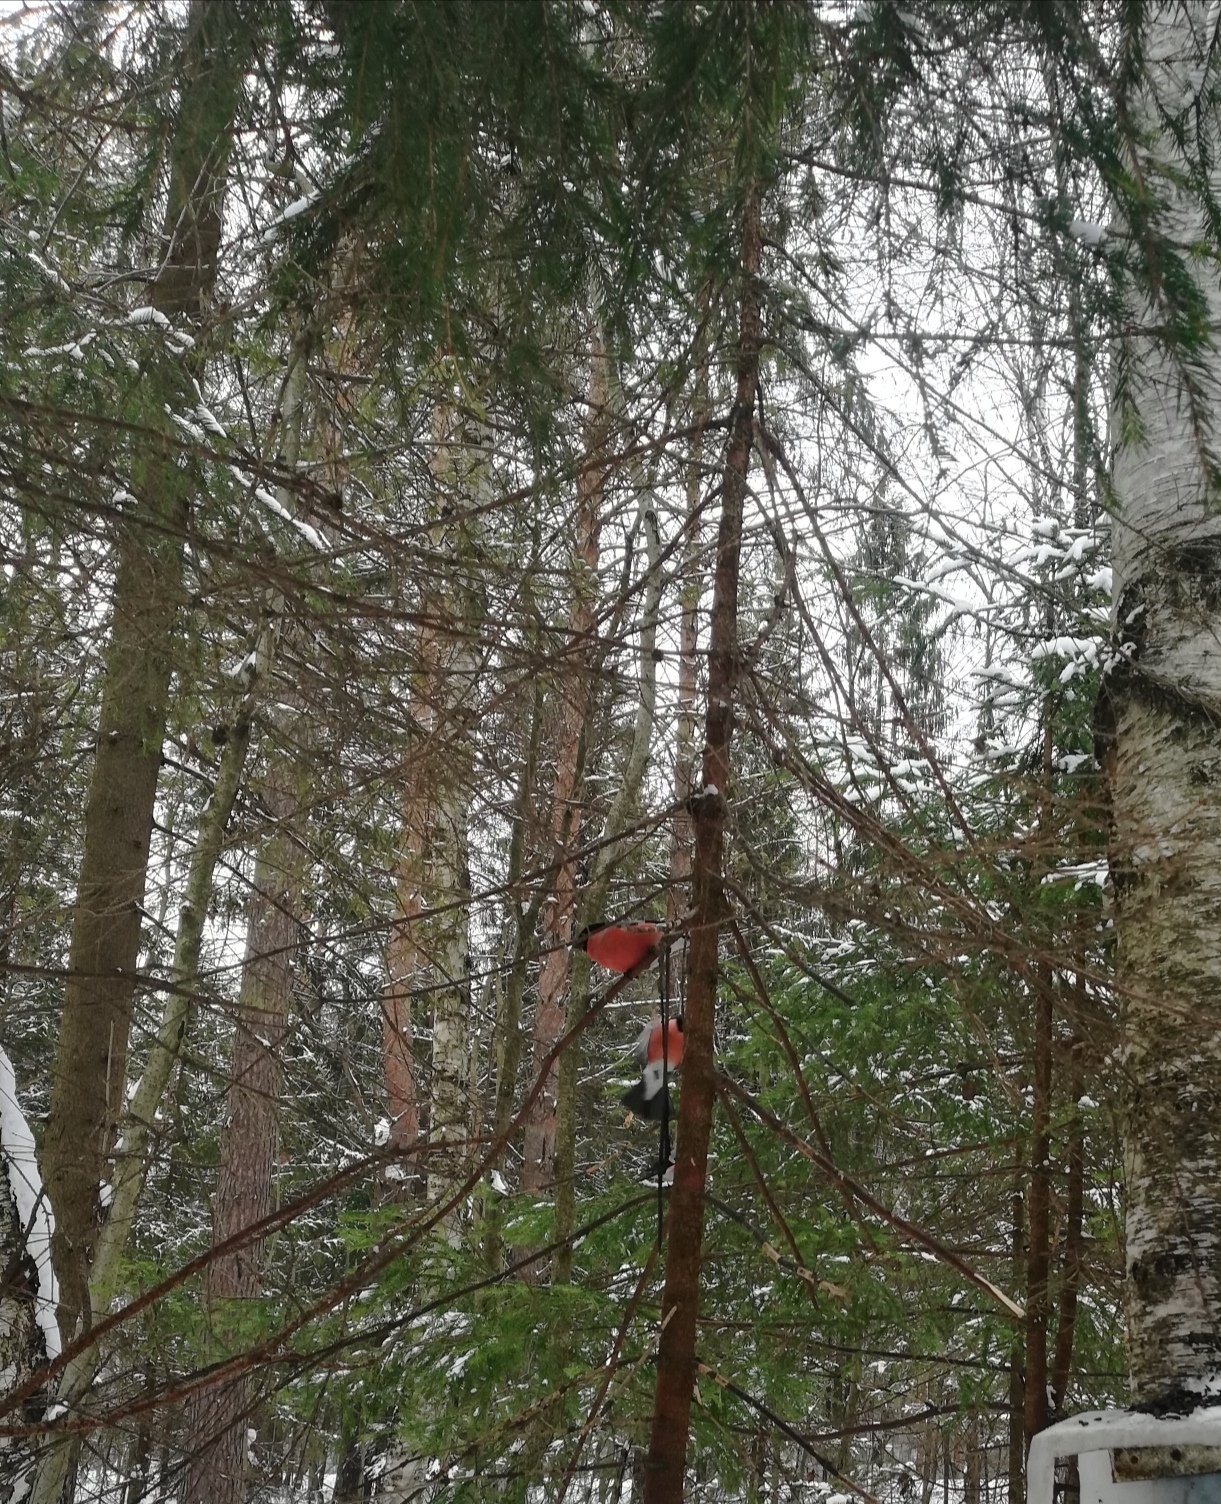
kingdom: Animalia
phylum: Chordata
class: Aves
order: Passeriformes
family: Fringillidae
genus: Pyrrhula
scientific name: Pyrrhula pyrrhula
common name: Eurasian bullfinch
